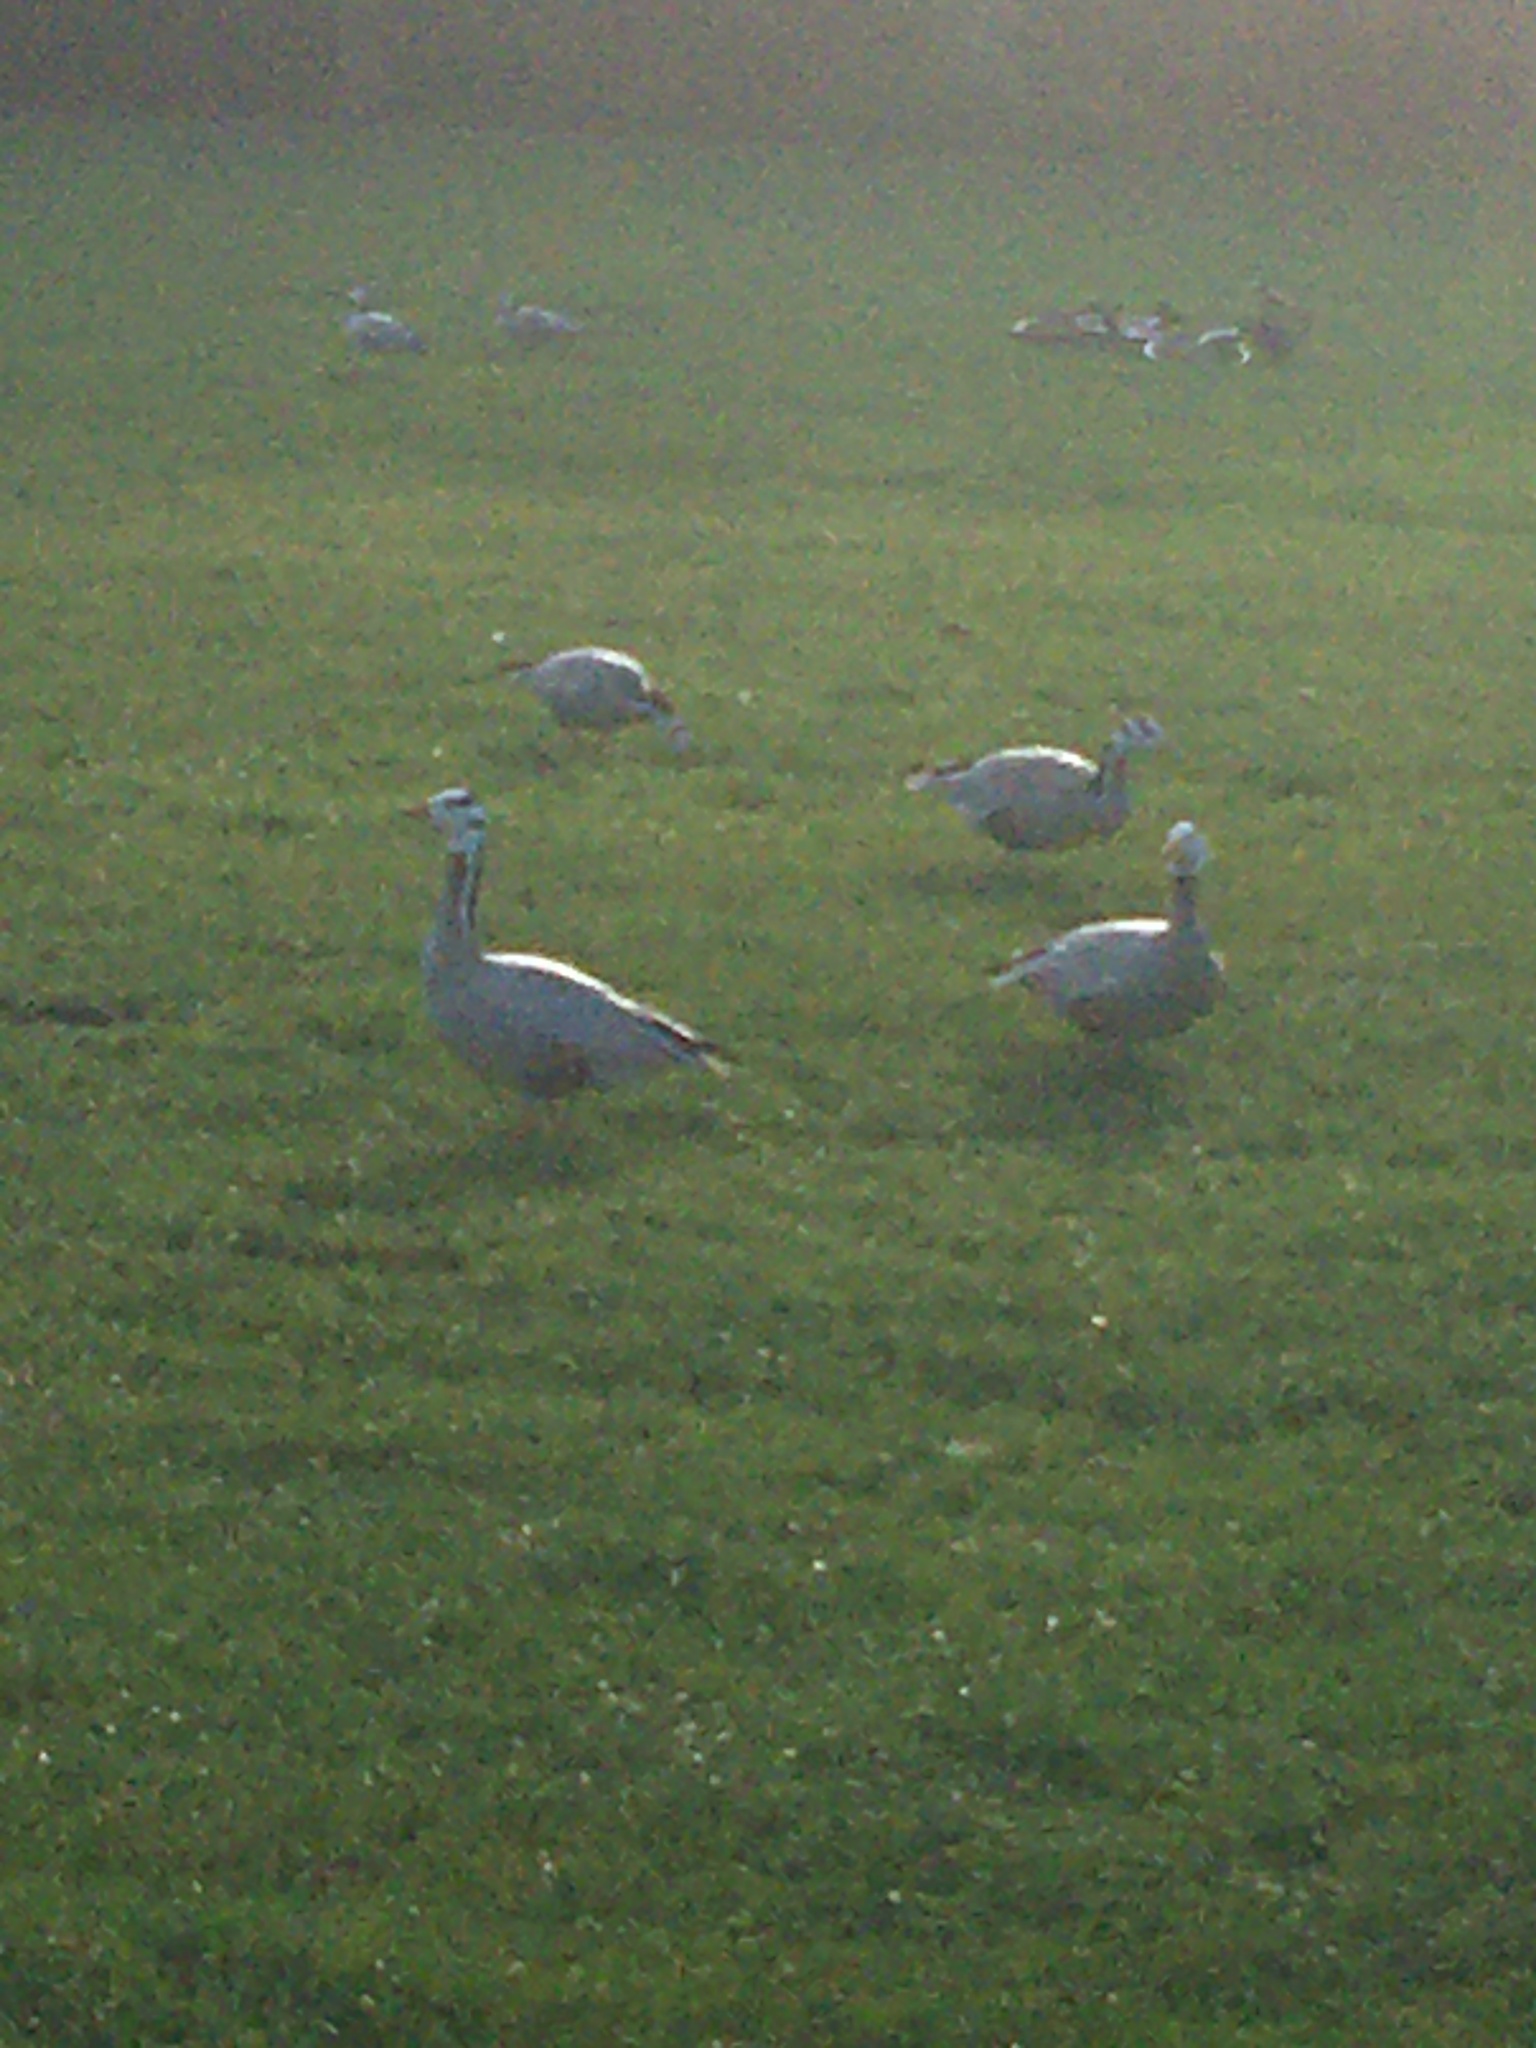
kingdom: Animalia
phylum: Chordata
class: Aves
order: Anseriformes
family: Anatidae
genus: Anser
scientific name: Anser indicus
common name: Bar-headed goose
